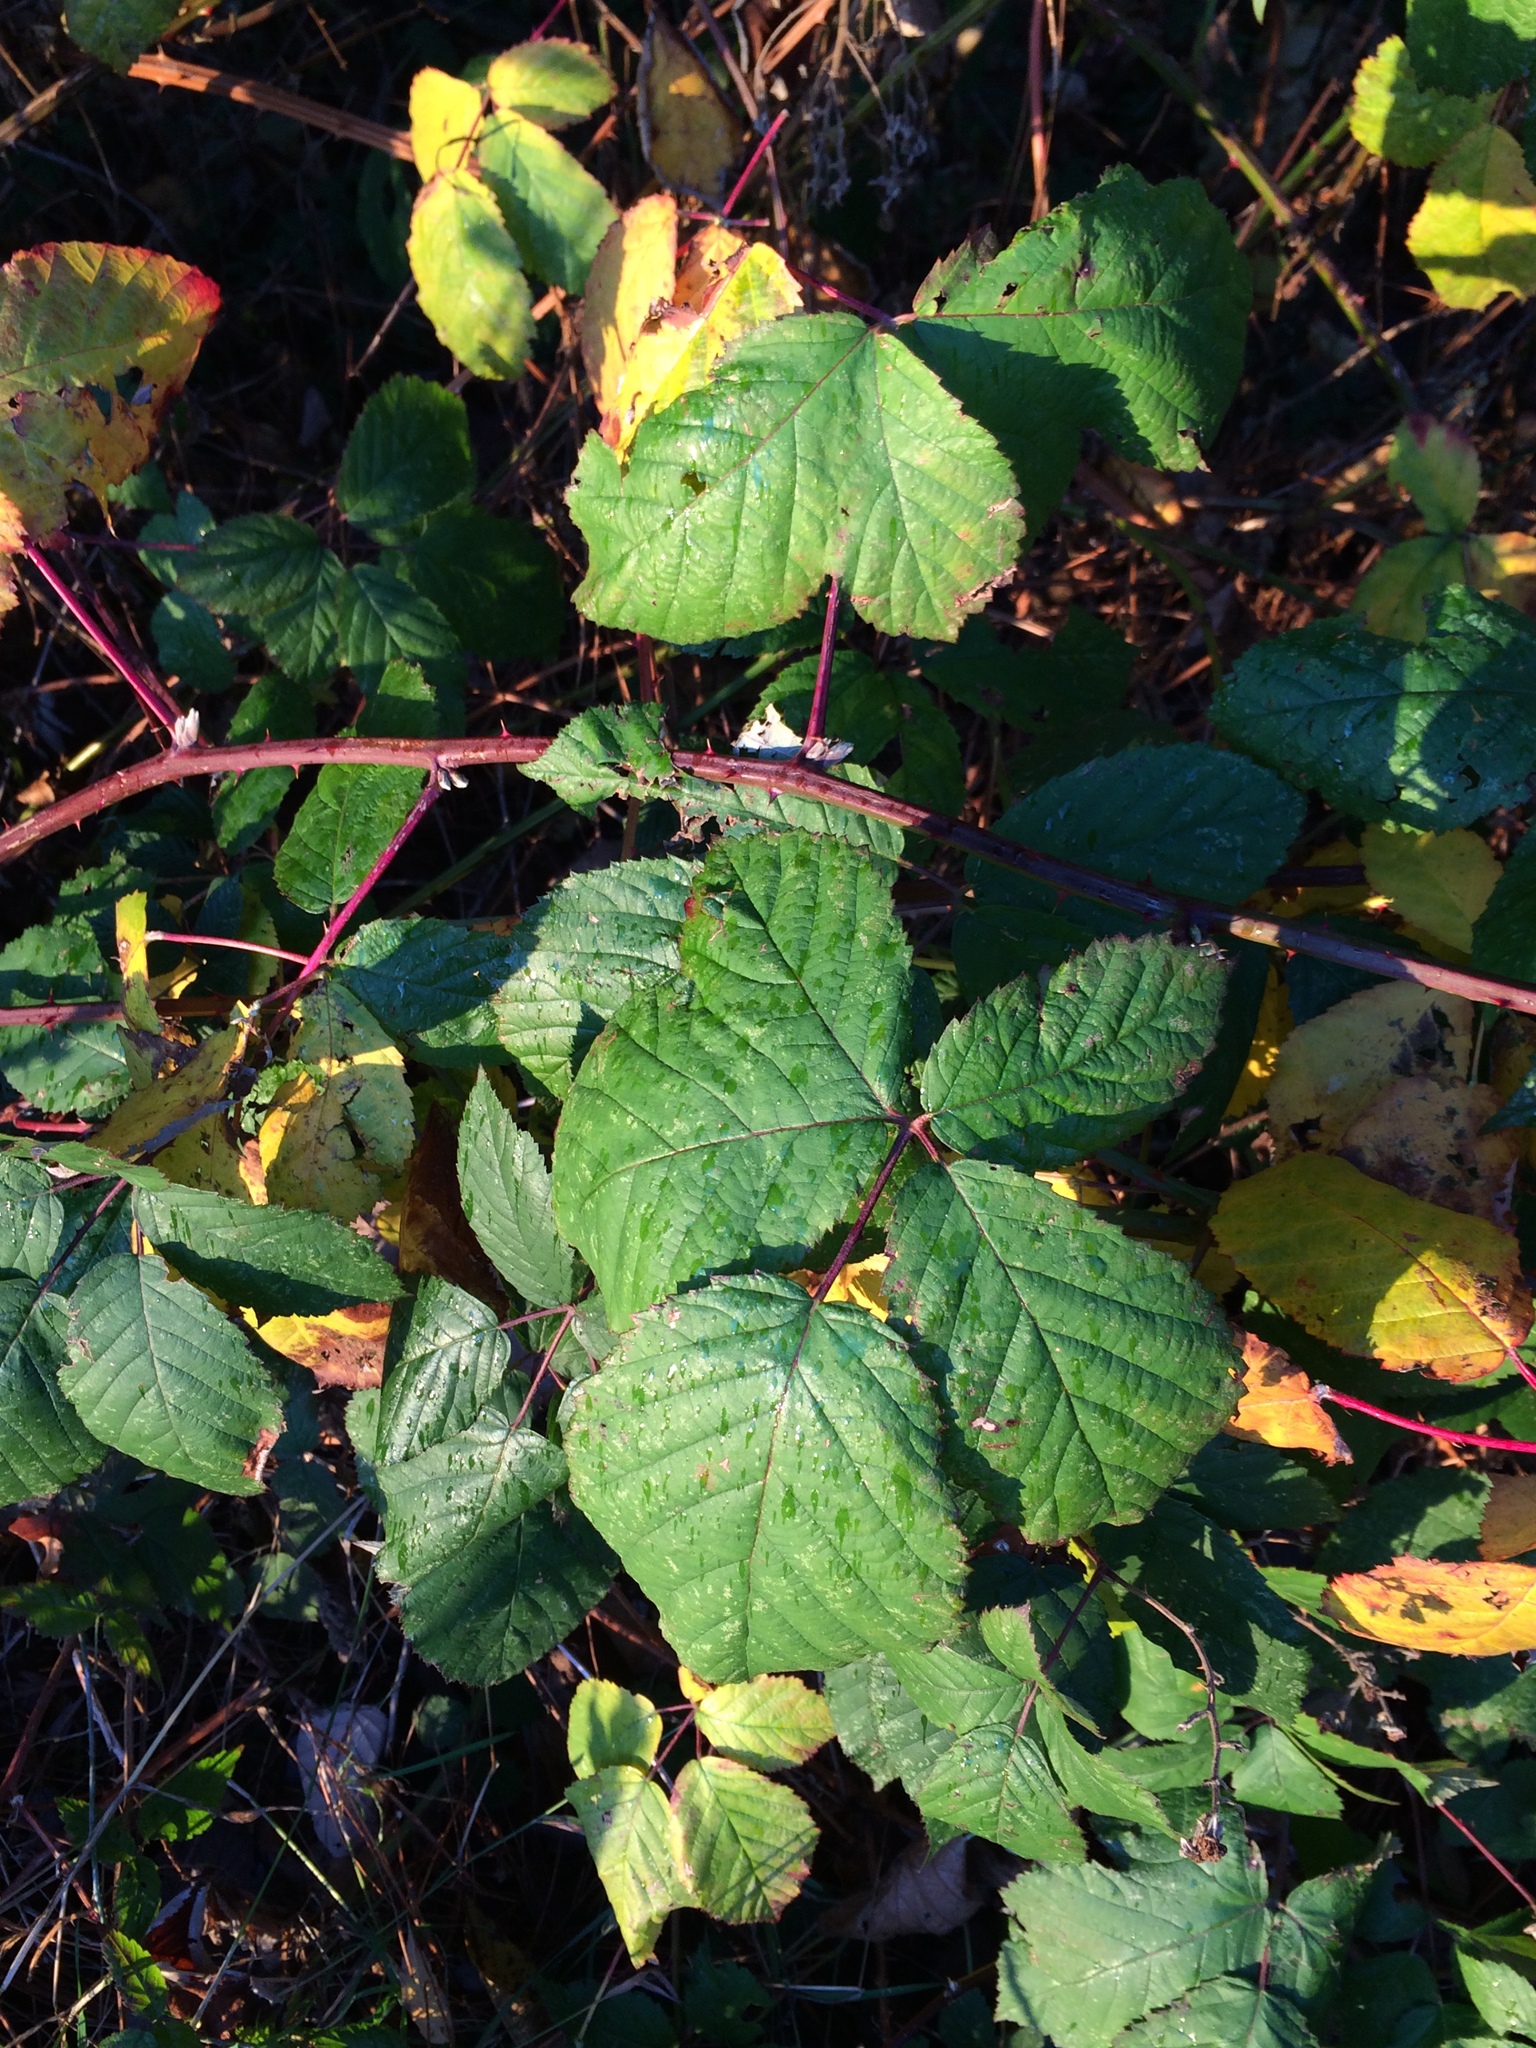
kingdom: Plantae
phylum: Tracheophyta
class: Magnoliopsida
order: Rosales
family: Rosaceae
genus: Rubus
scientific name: Rubus bifrons
